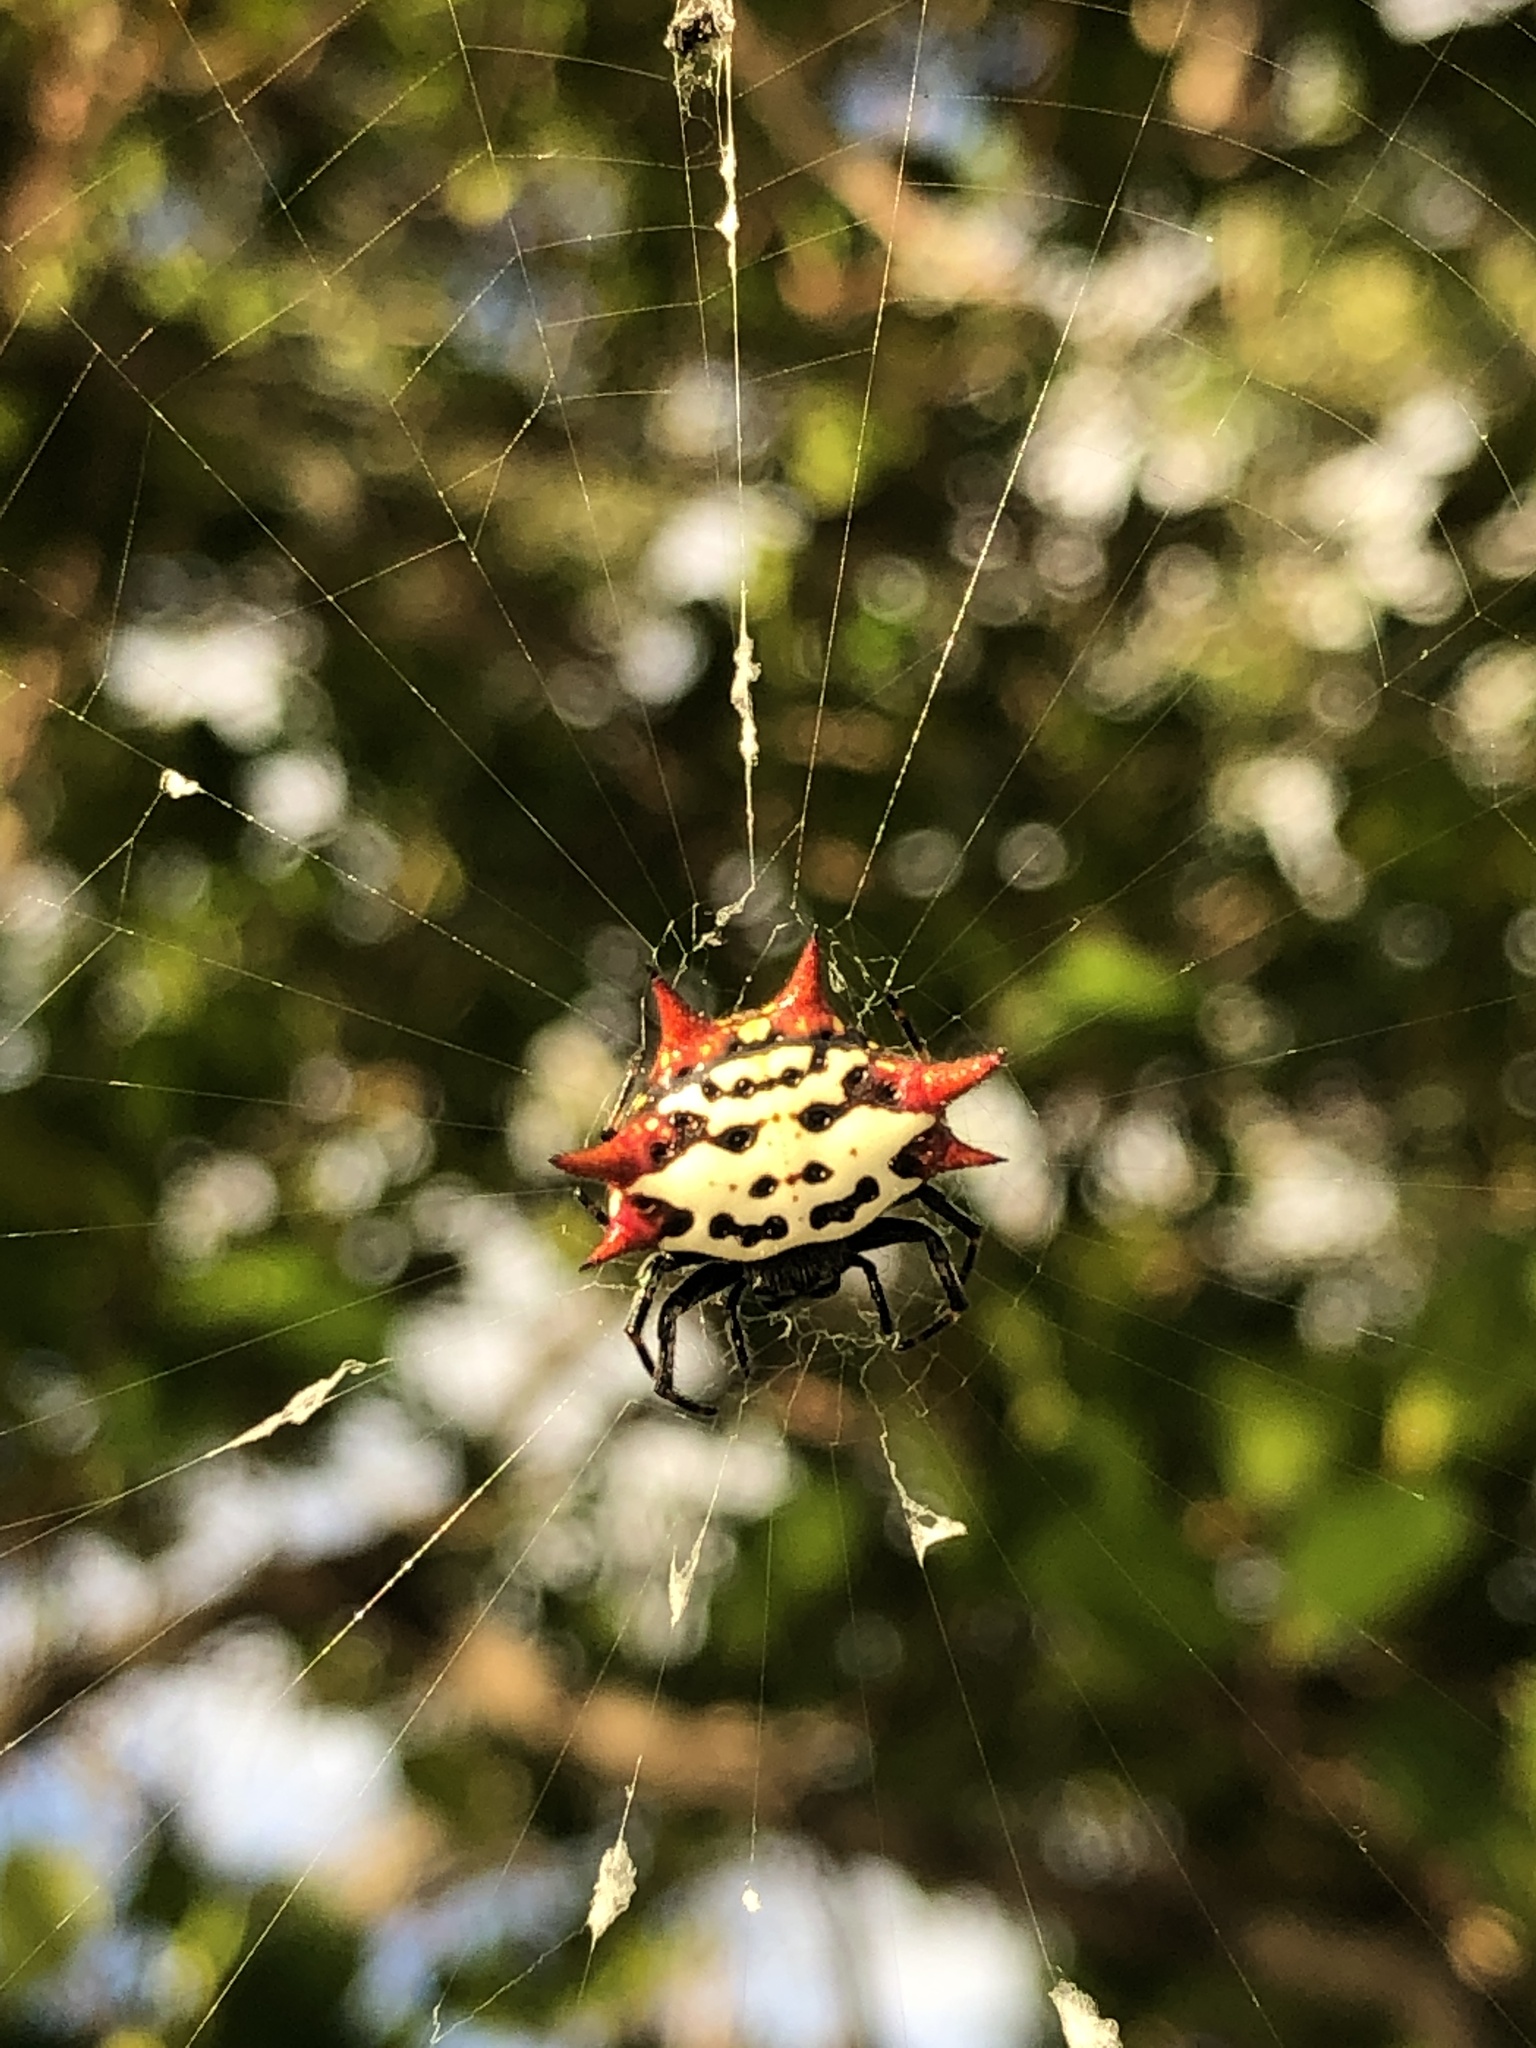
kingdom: Animalia
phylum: Arthropoda
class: Arachnida
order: Araneae
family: Araneidae
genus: Gasteracantha
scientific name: Gasteracantha cancriformis
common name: Orb weavers
